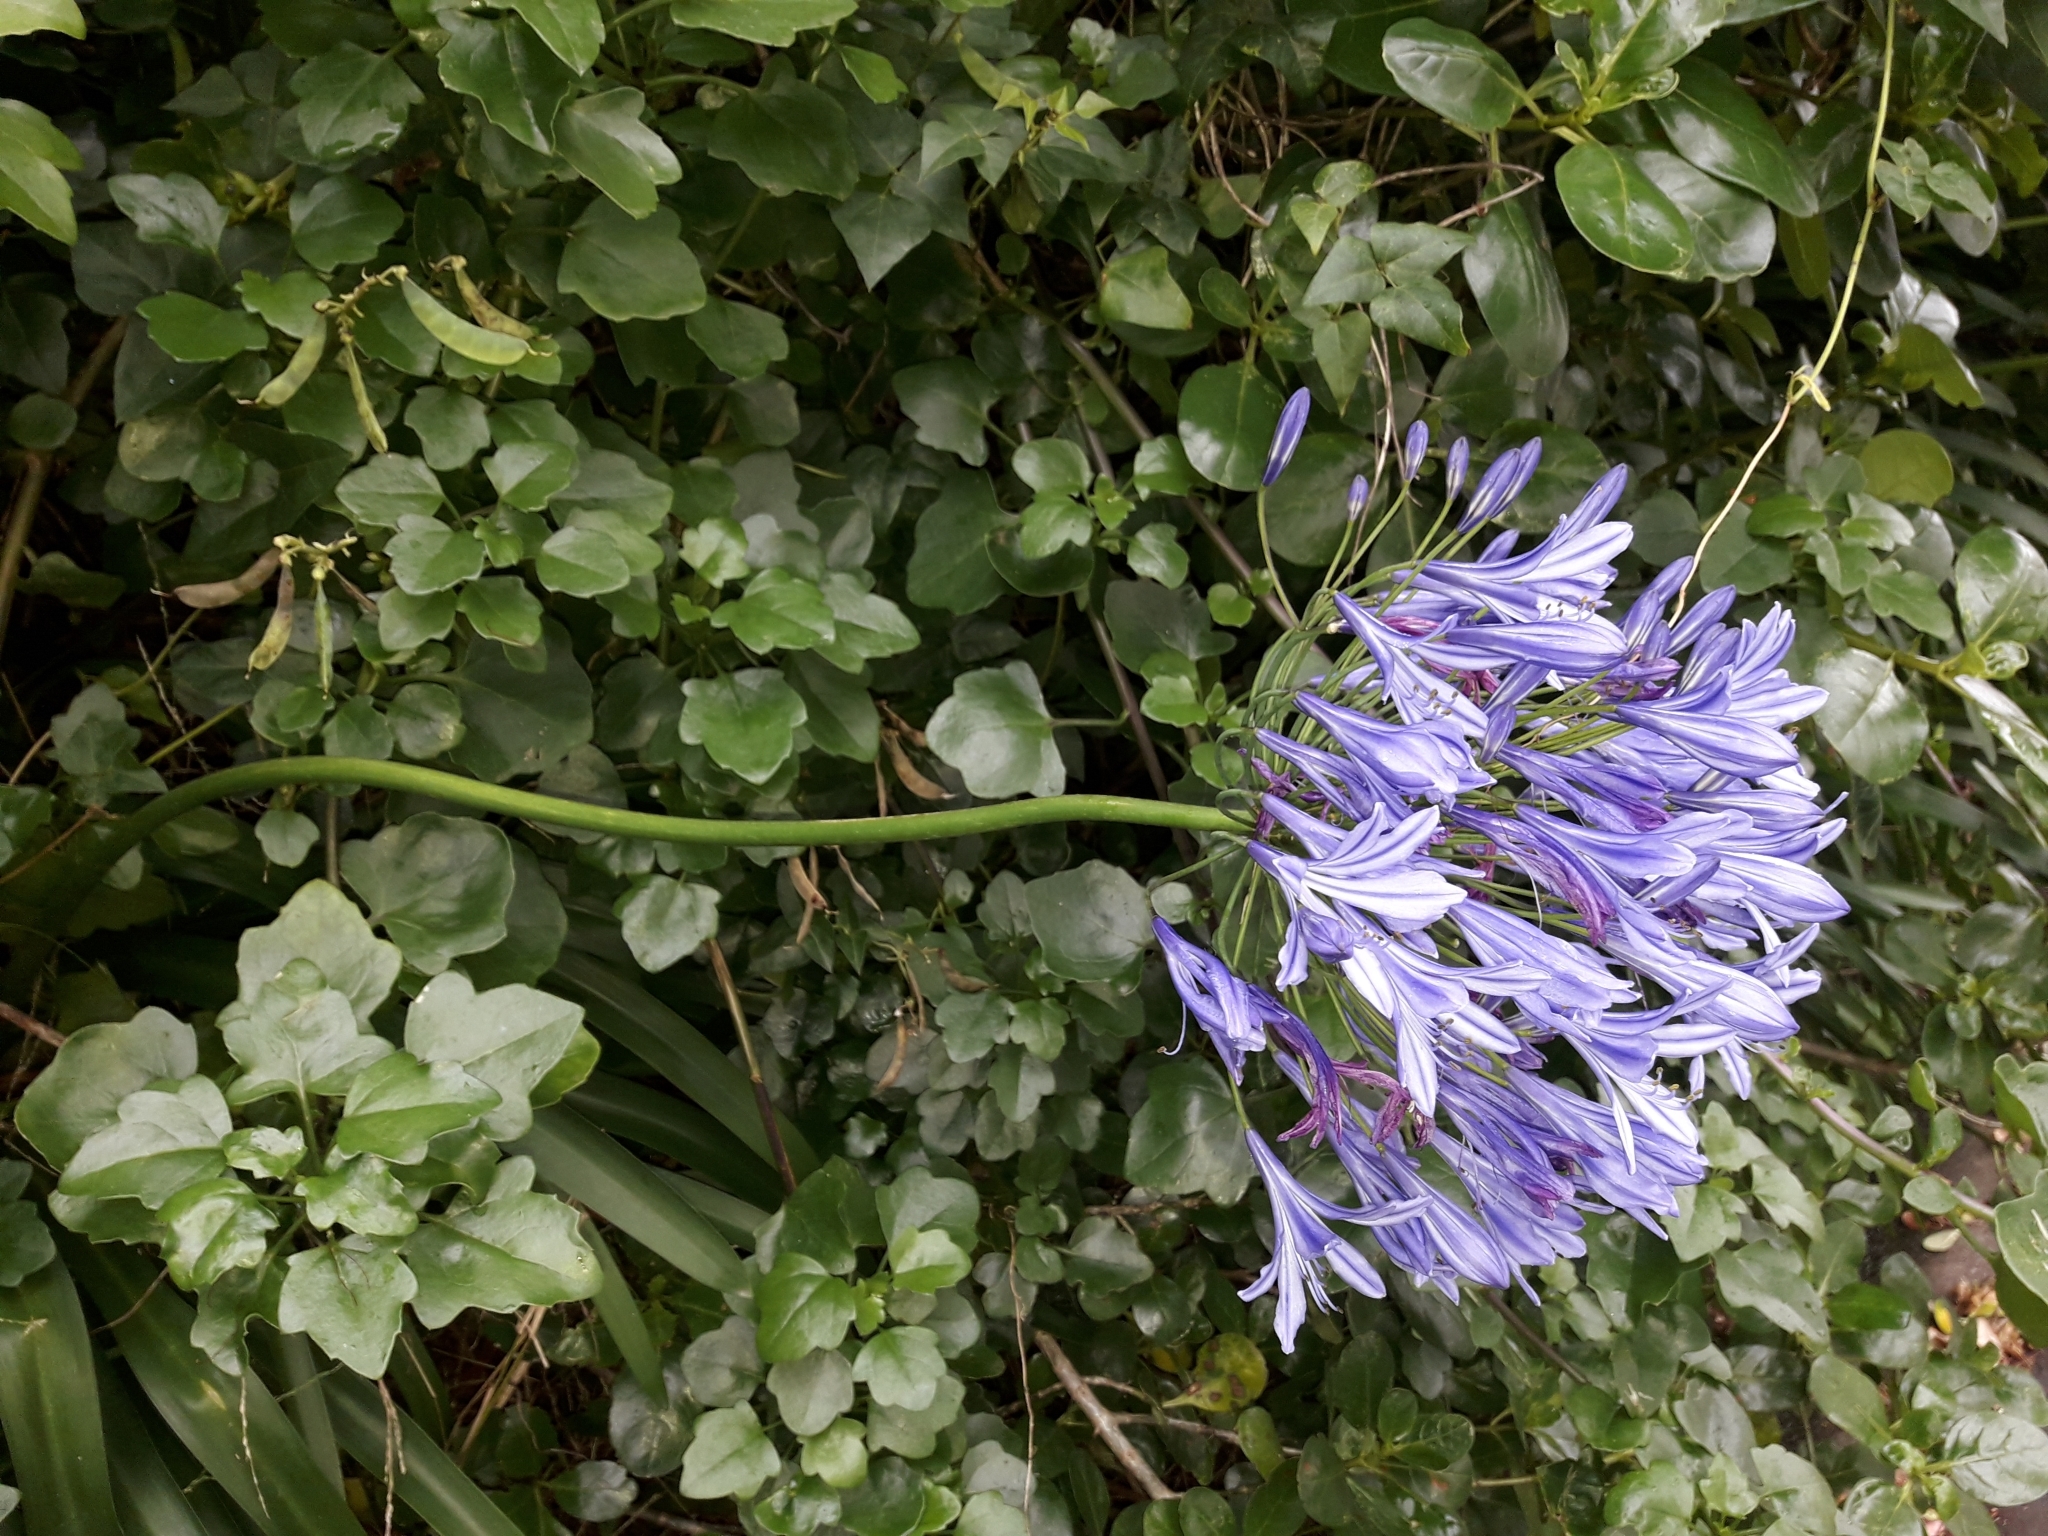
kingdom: Plantae
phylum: Tracheophyta
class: Liliopsida
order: Asparagales
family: Amaryllidaceae
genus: Agapanthus
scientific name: Agapanthus praecox
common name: African-lily
